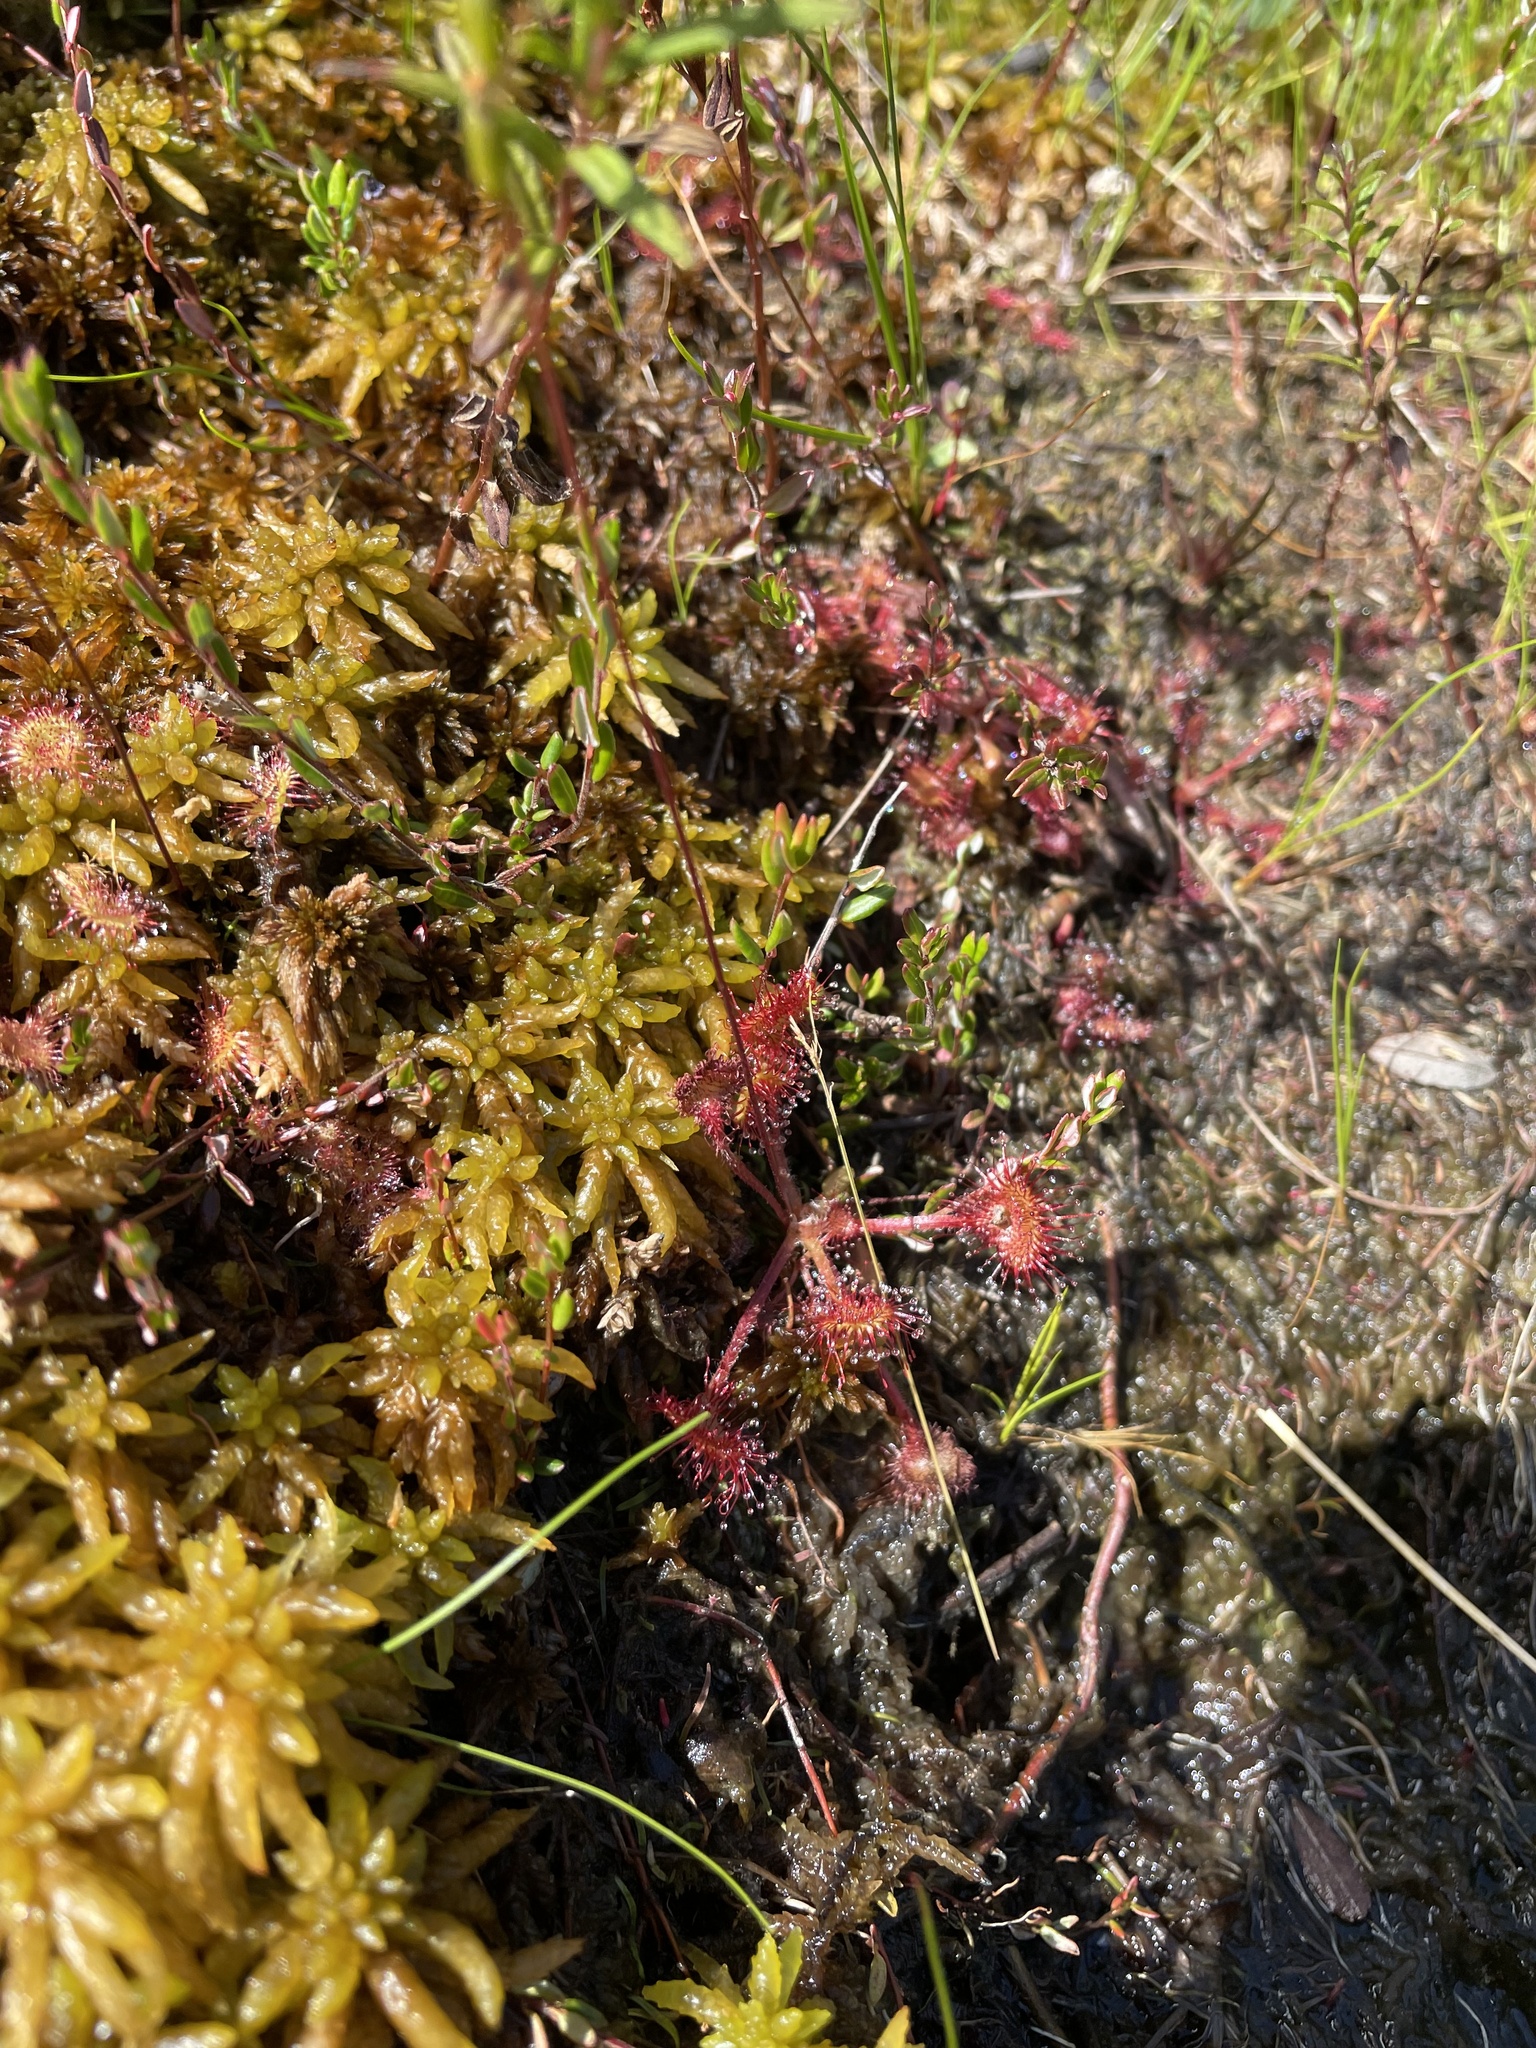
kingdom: Plantae
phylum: Tracheophyta
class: Magnoliopsida
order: Caryophyllales
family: Droseraceae
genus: Drosera
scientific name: Drosera rotundifolia
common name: Round-leaved sundew
